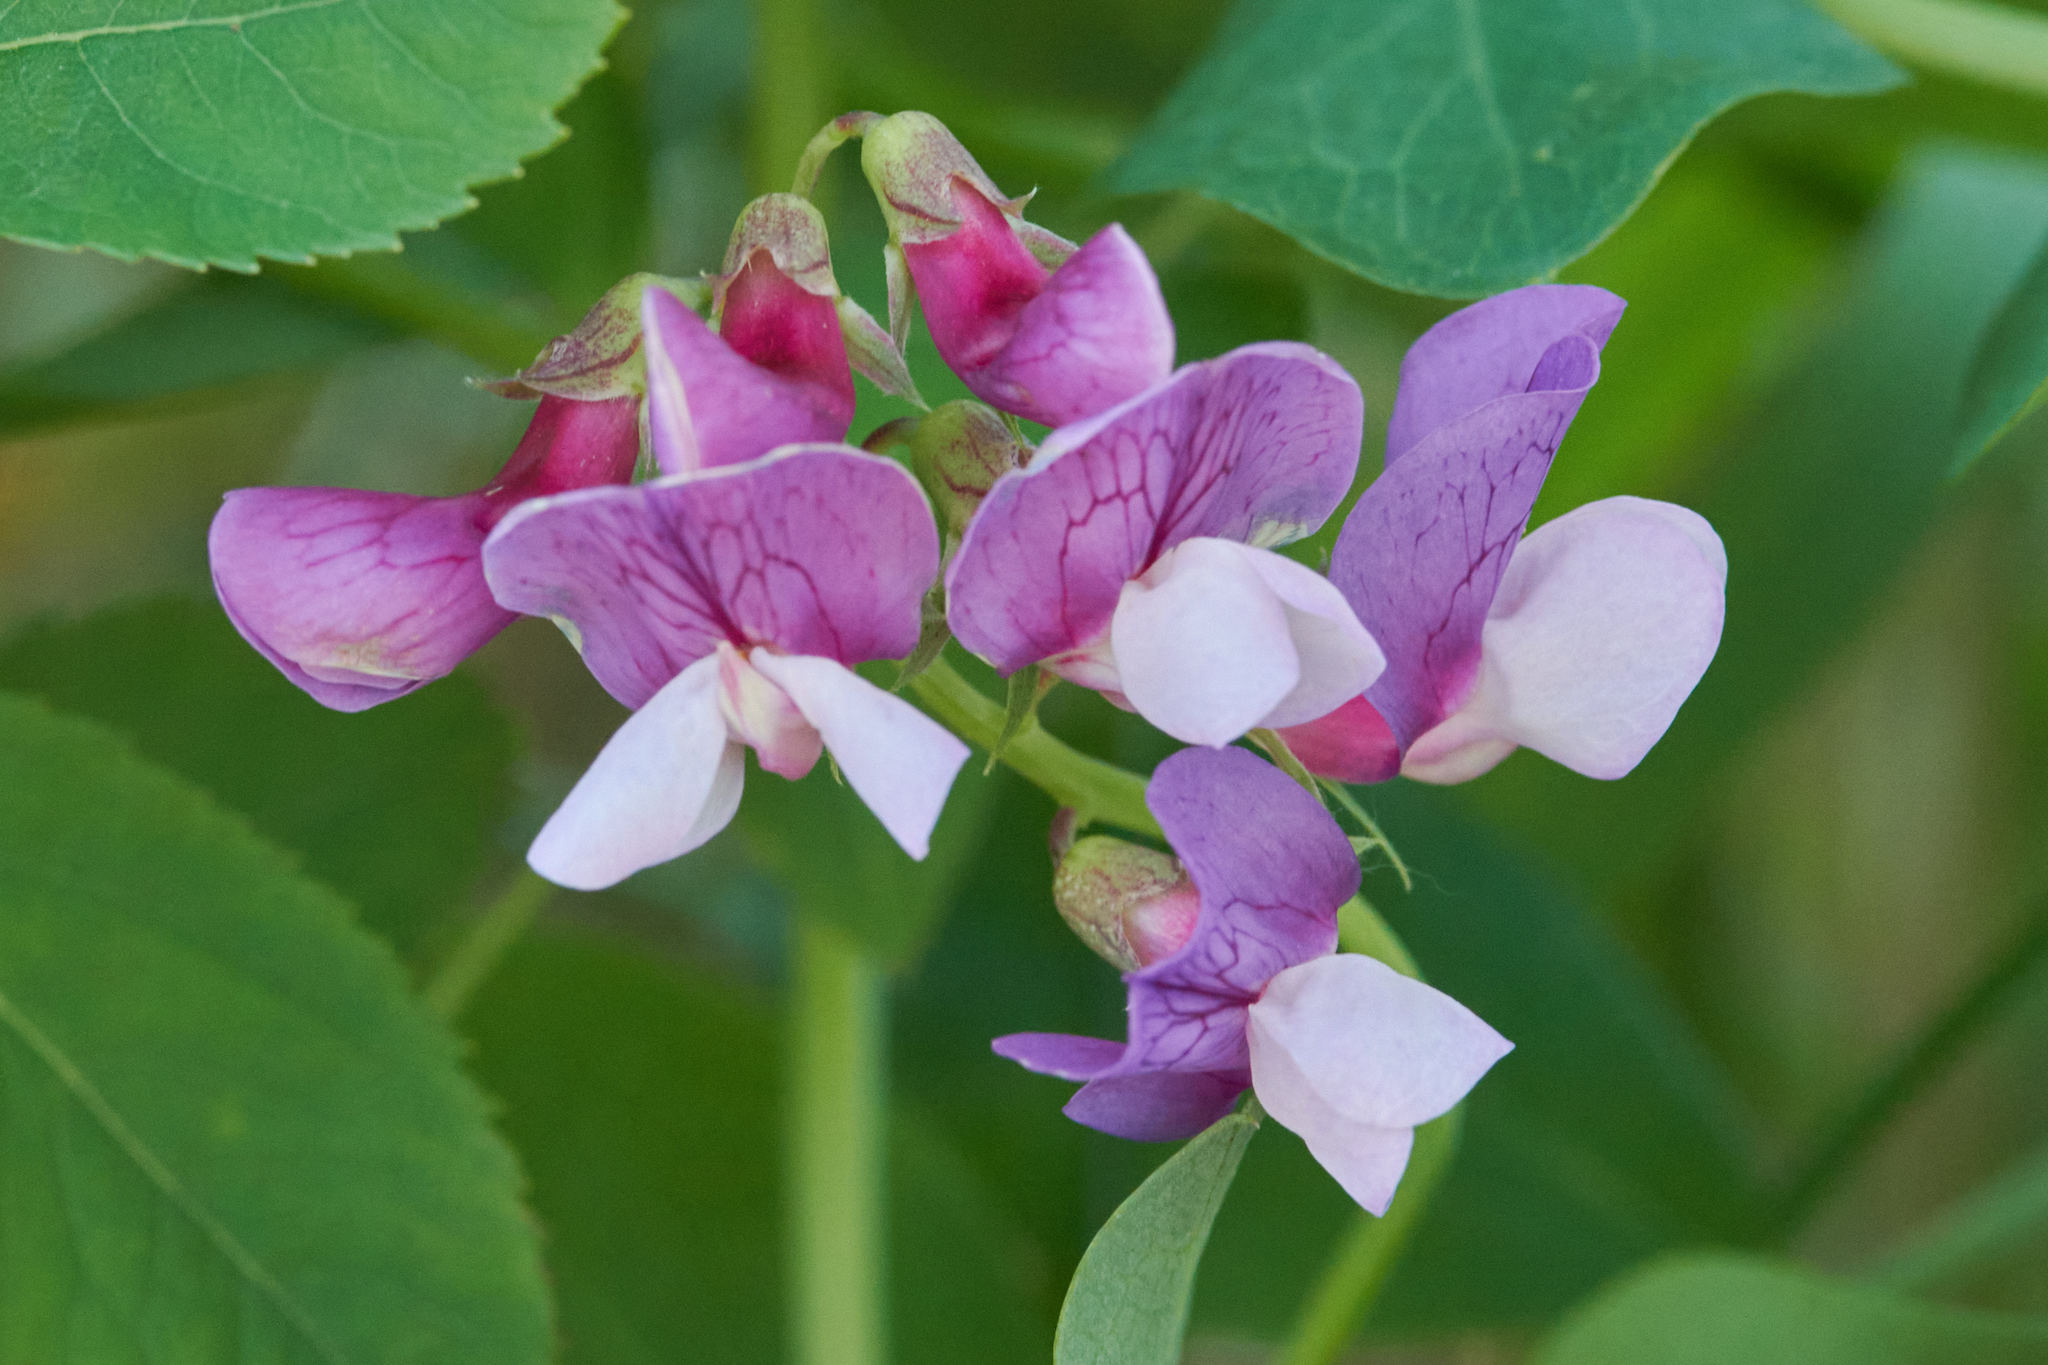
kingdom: Plantae
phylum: Tracheophyta
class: Magnoliopsida
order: Fabales
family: Fabaceae
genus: Lathyrus
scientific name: Lathyrus japonicus
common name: Sea pea
